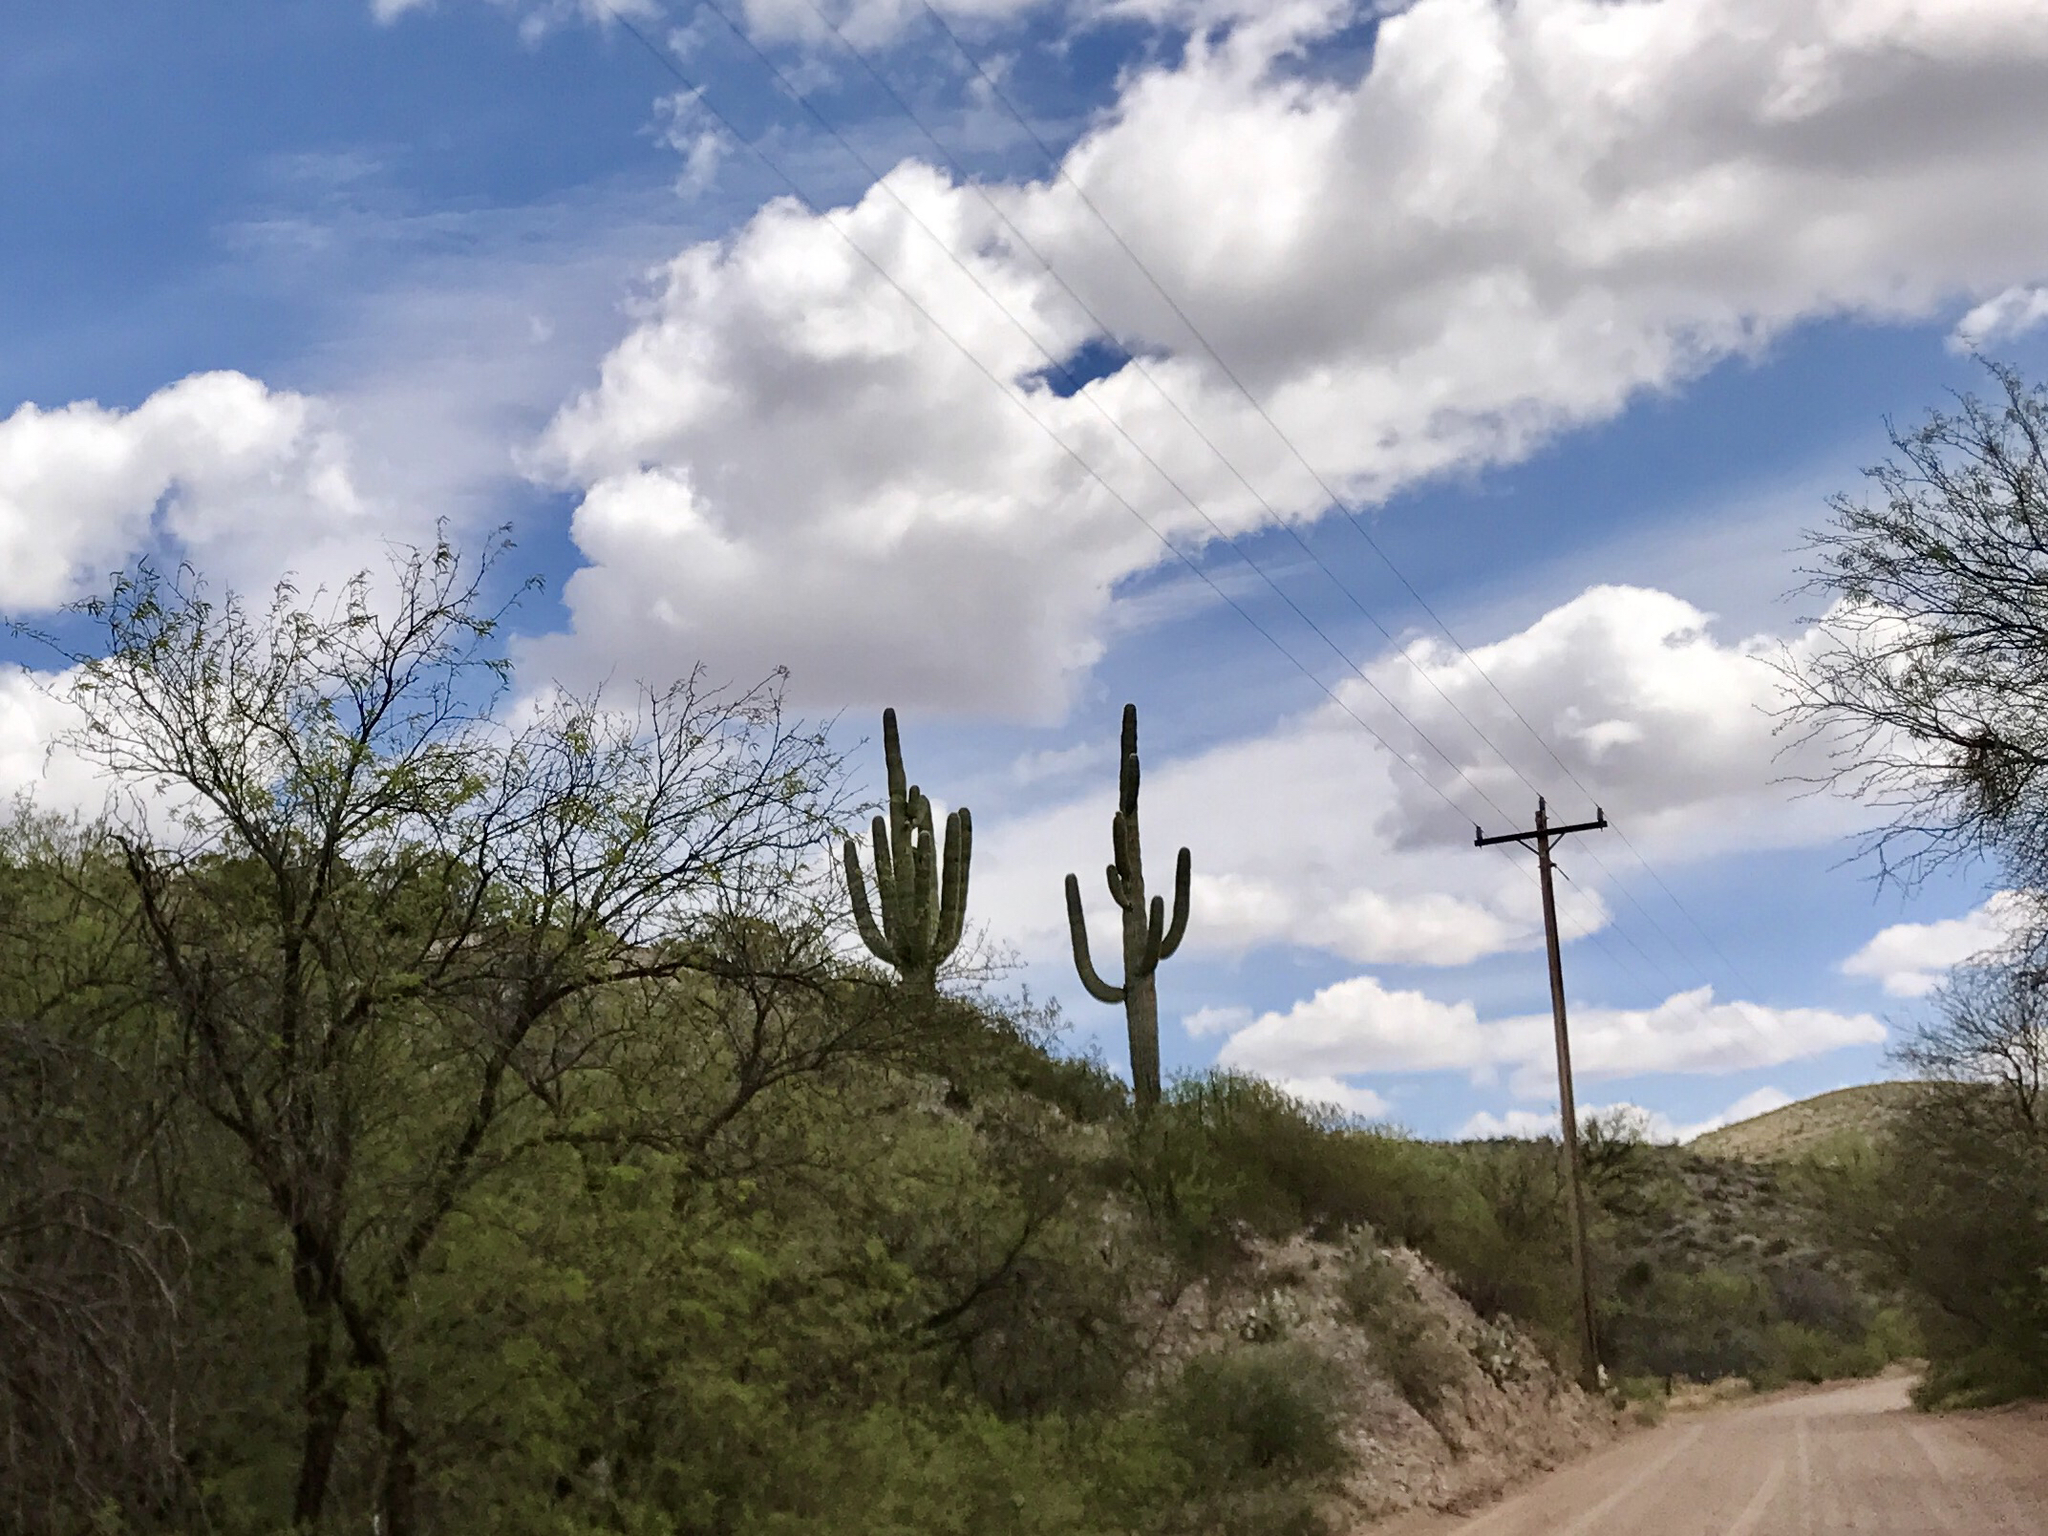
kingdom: Plantae
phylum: Tracheophyta
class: Magnoliopsida
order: Caryophyllales
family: Cactaceae
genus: Carnegiea
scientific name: Carnegiea gigantea
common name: Saguaro
